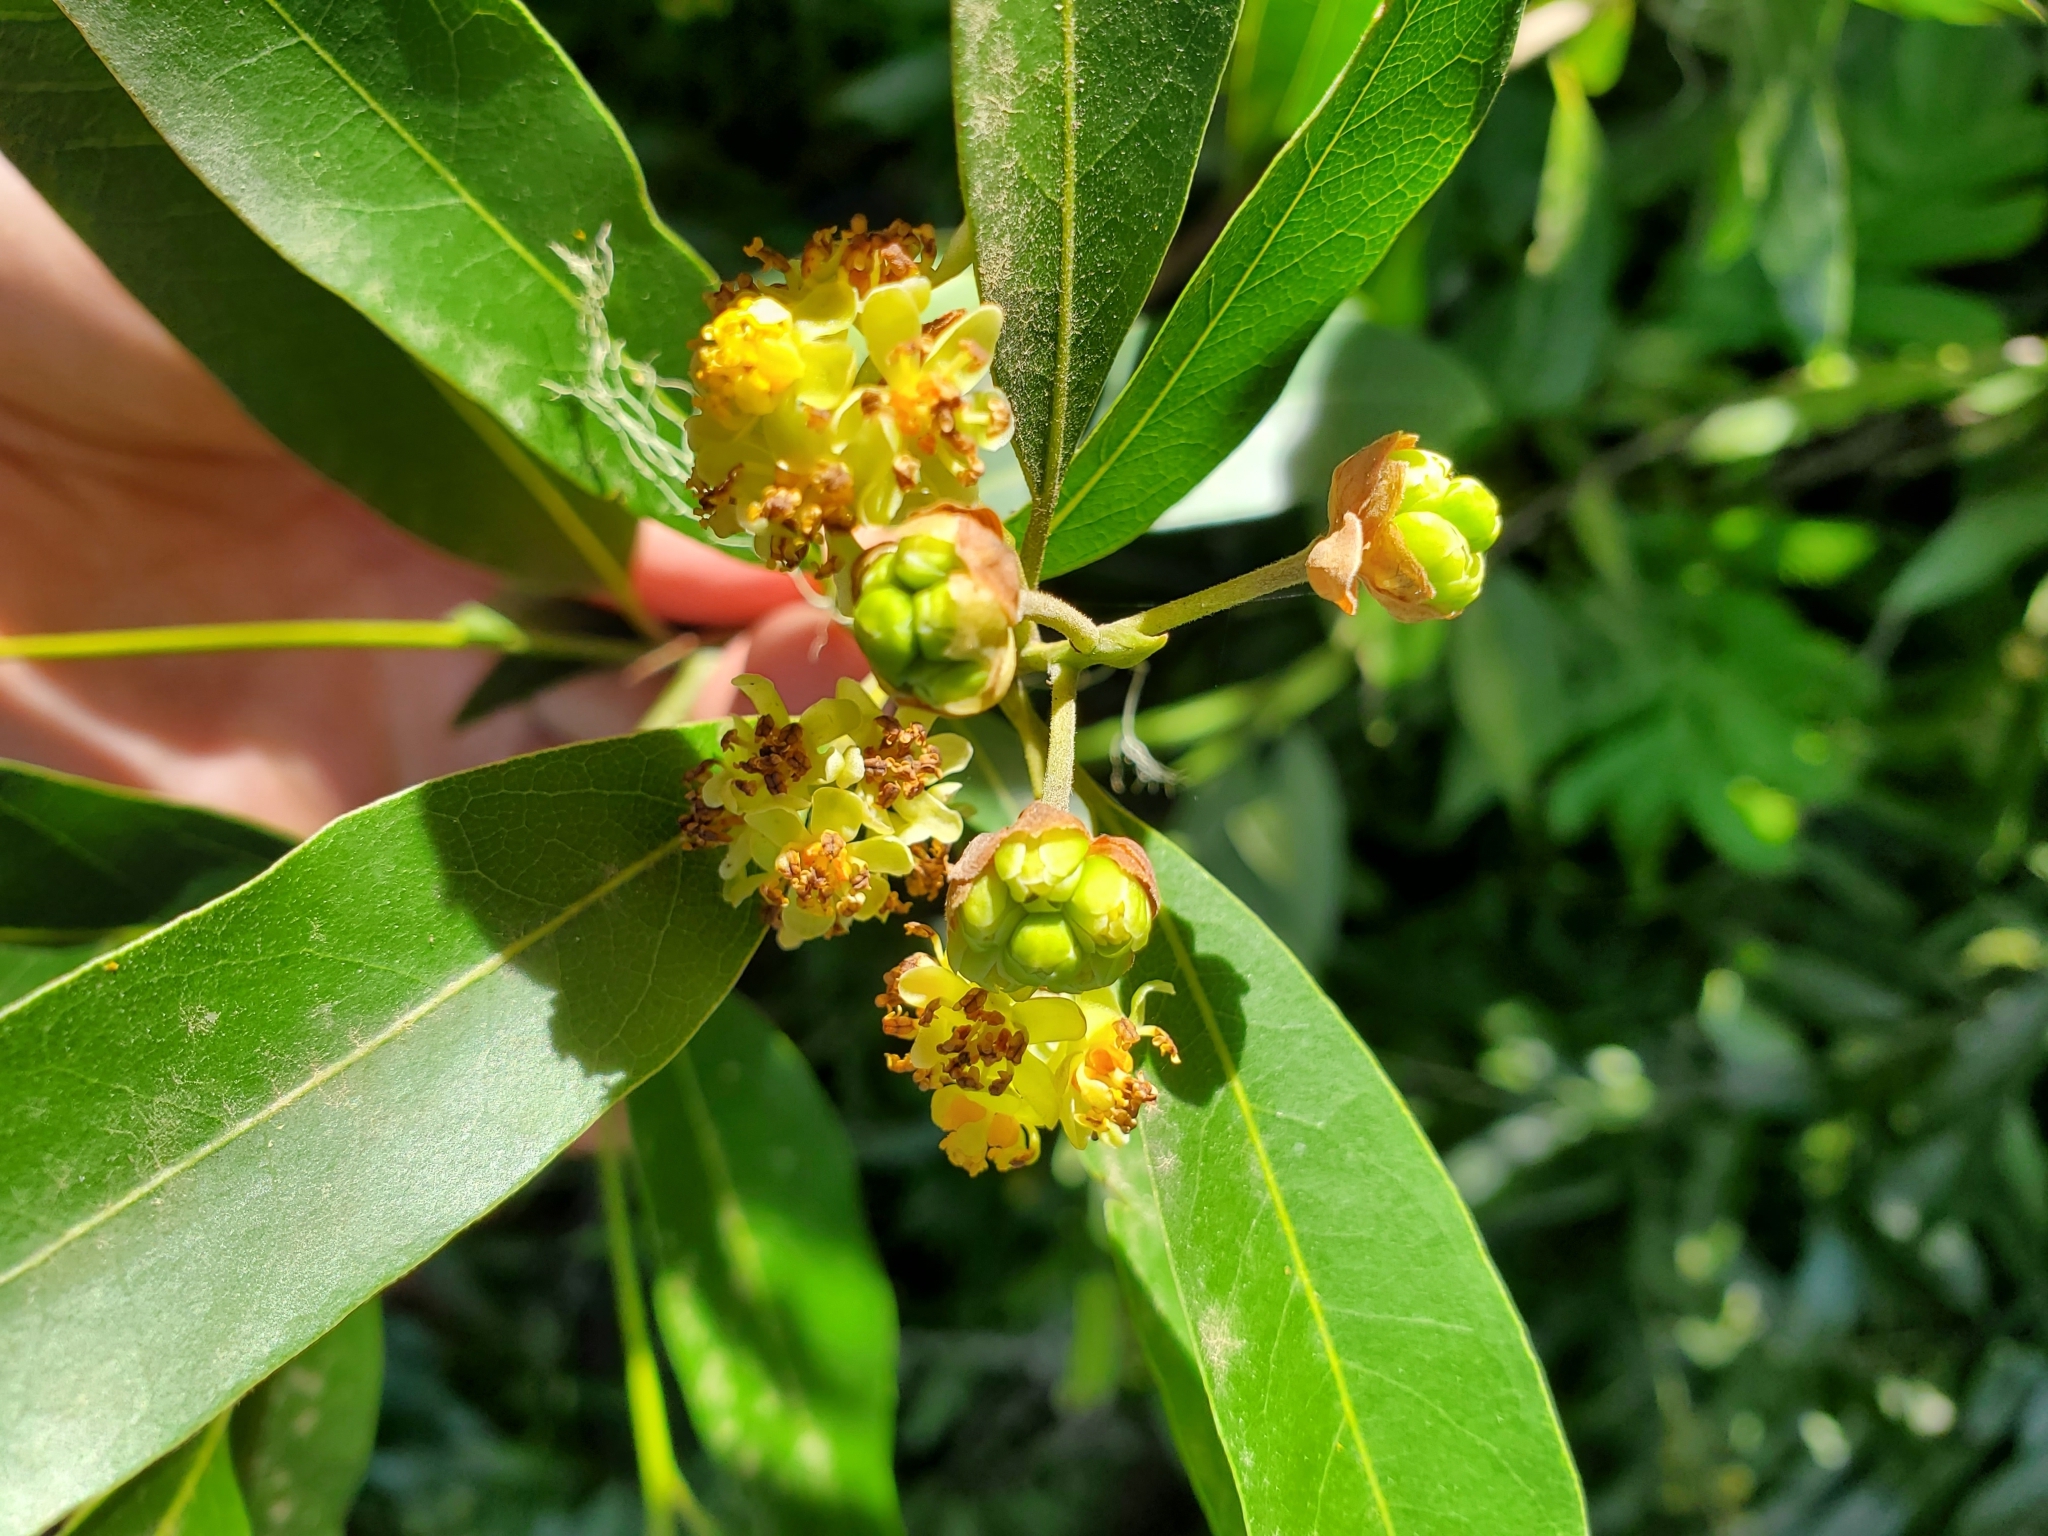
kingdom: Plantae
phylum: Tracheophyta
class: Magnoliopsida
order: Laurales
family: Lauraceae
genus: Umbellularia
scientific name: Umbellularia californica
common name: California bay
